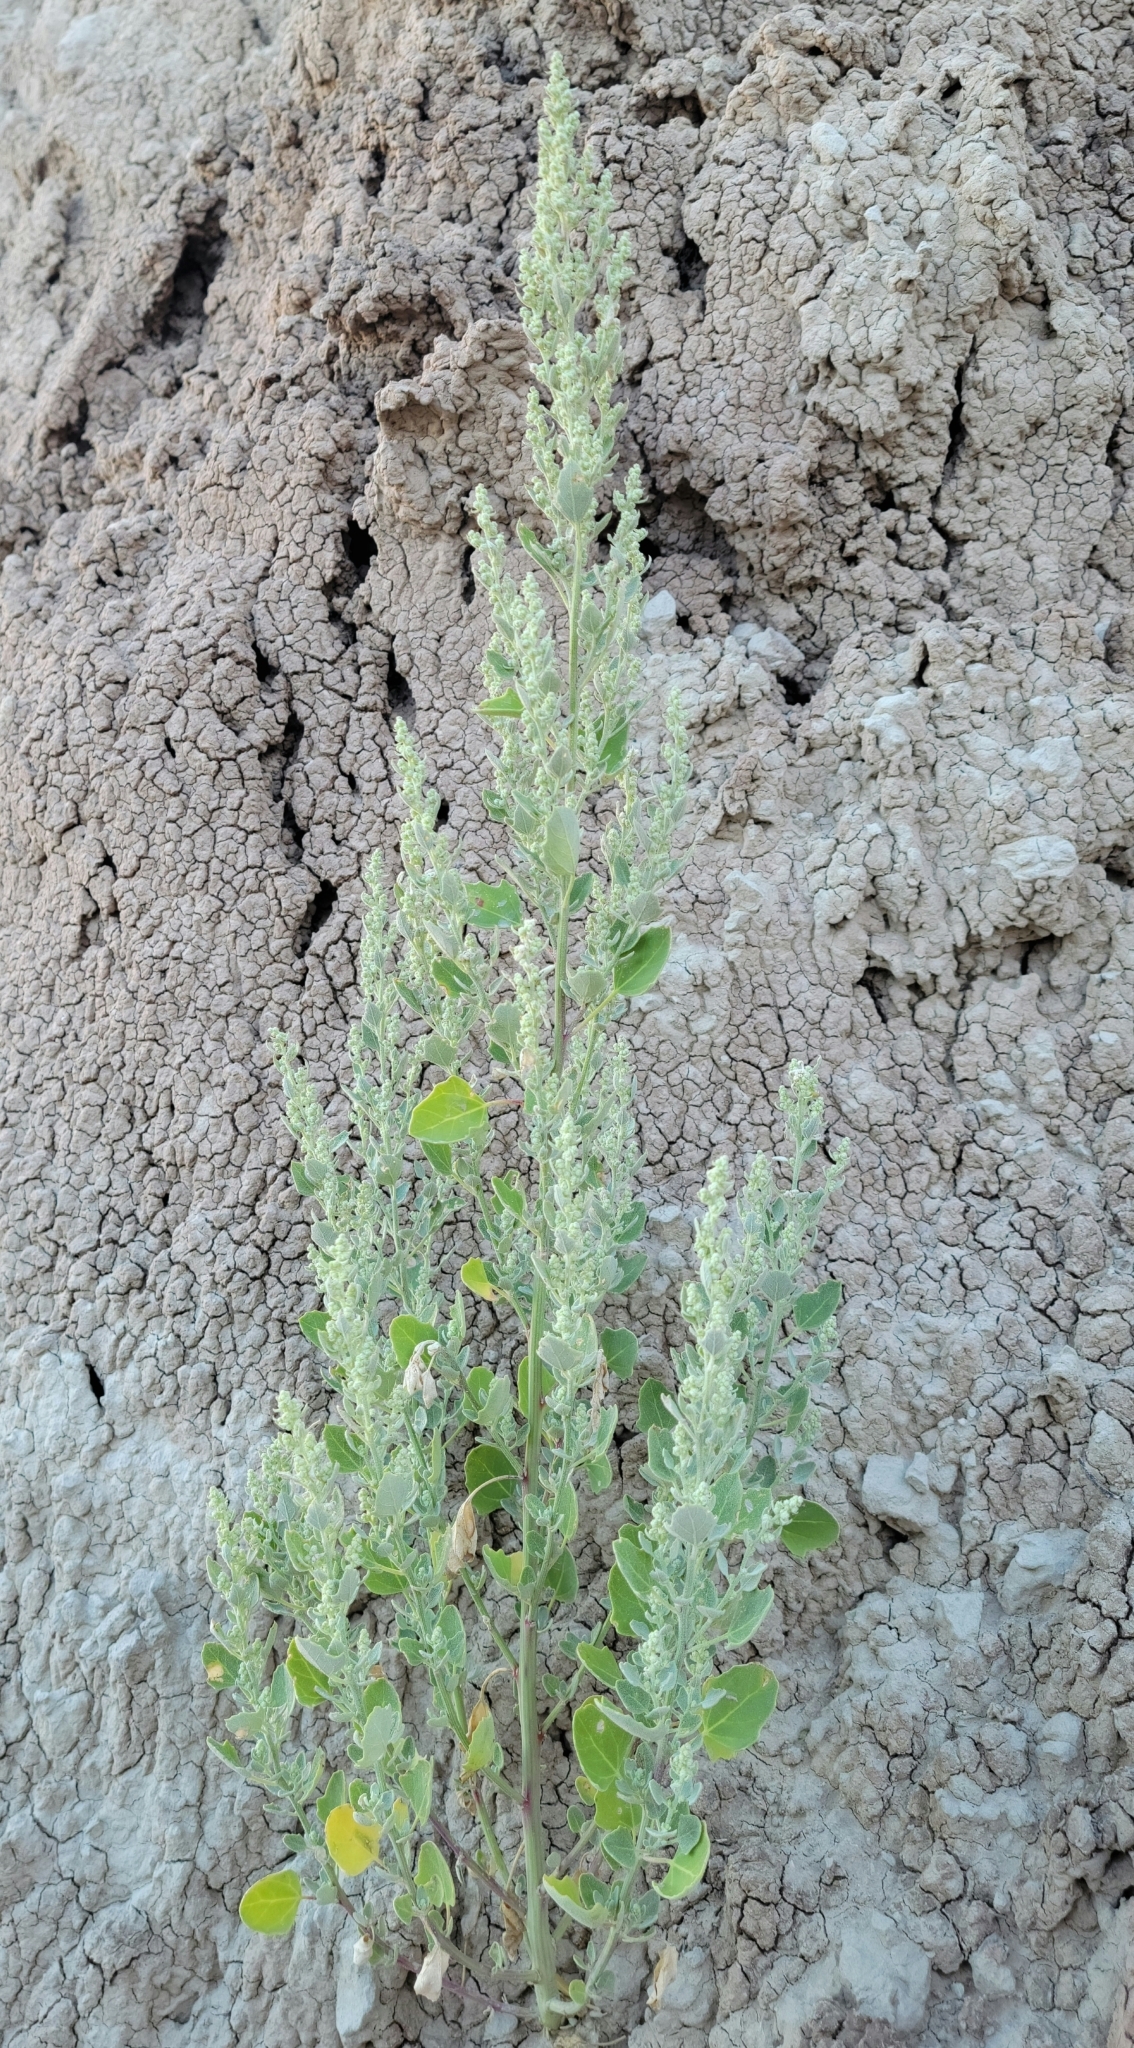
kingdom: Plantae
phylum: Tracheophyta
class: Magnoliopsida
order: Caryophyllales
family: Amaranthaceae
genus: Chenopodium
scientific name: Chenopodium album
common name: Fat-hen
